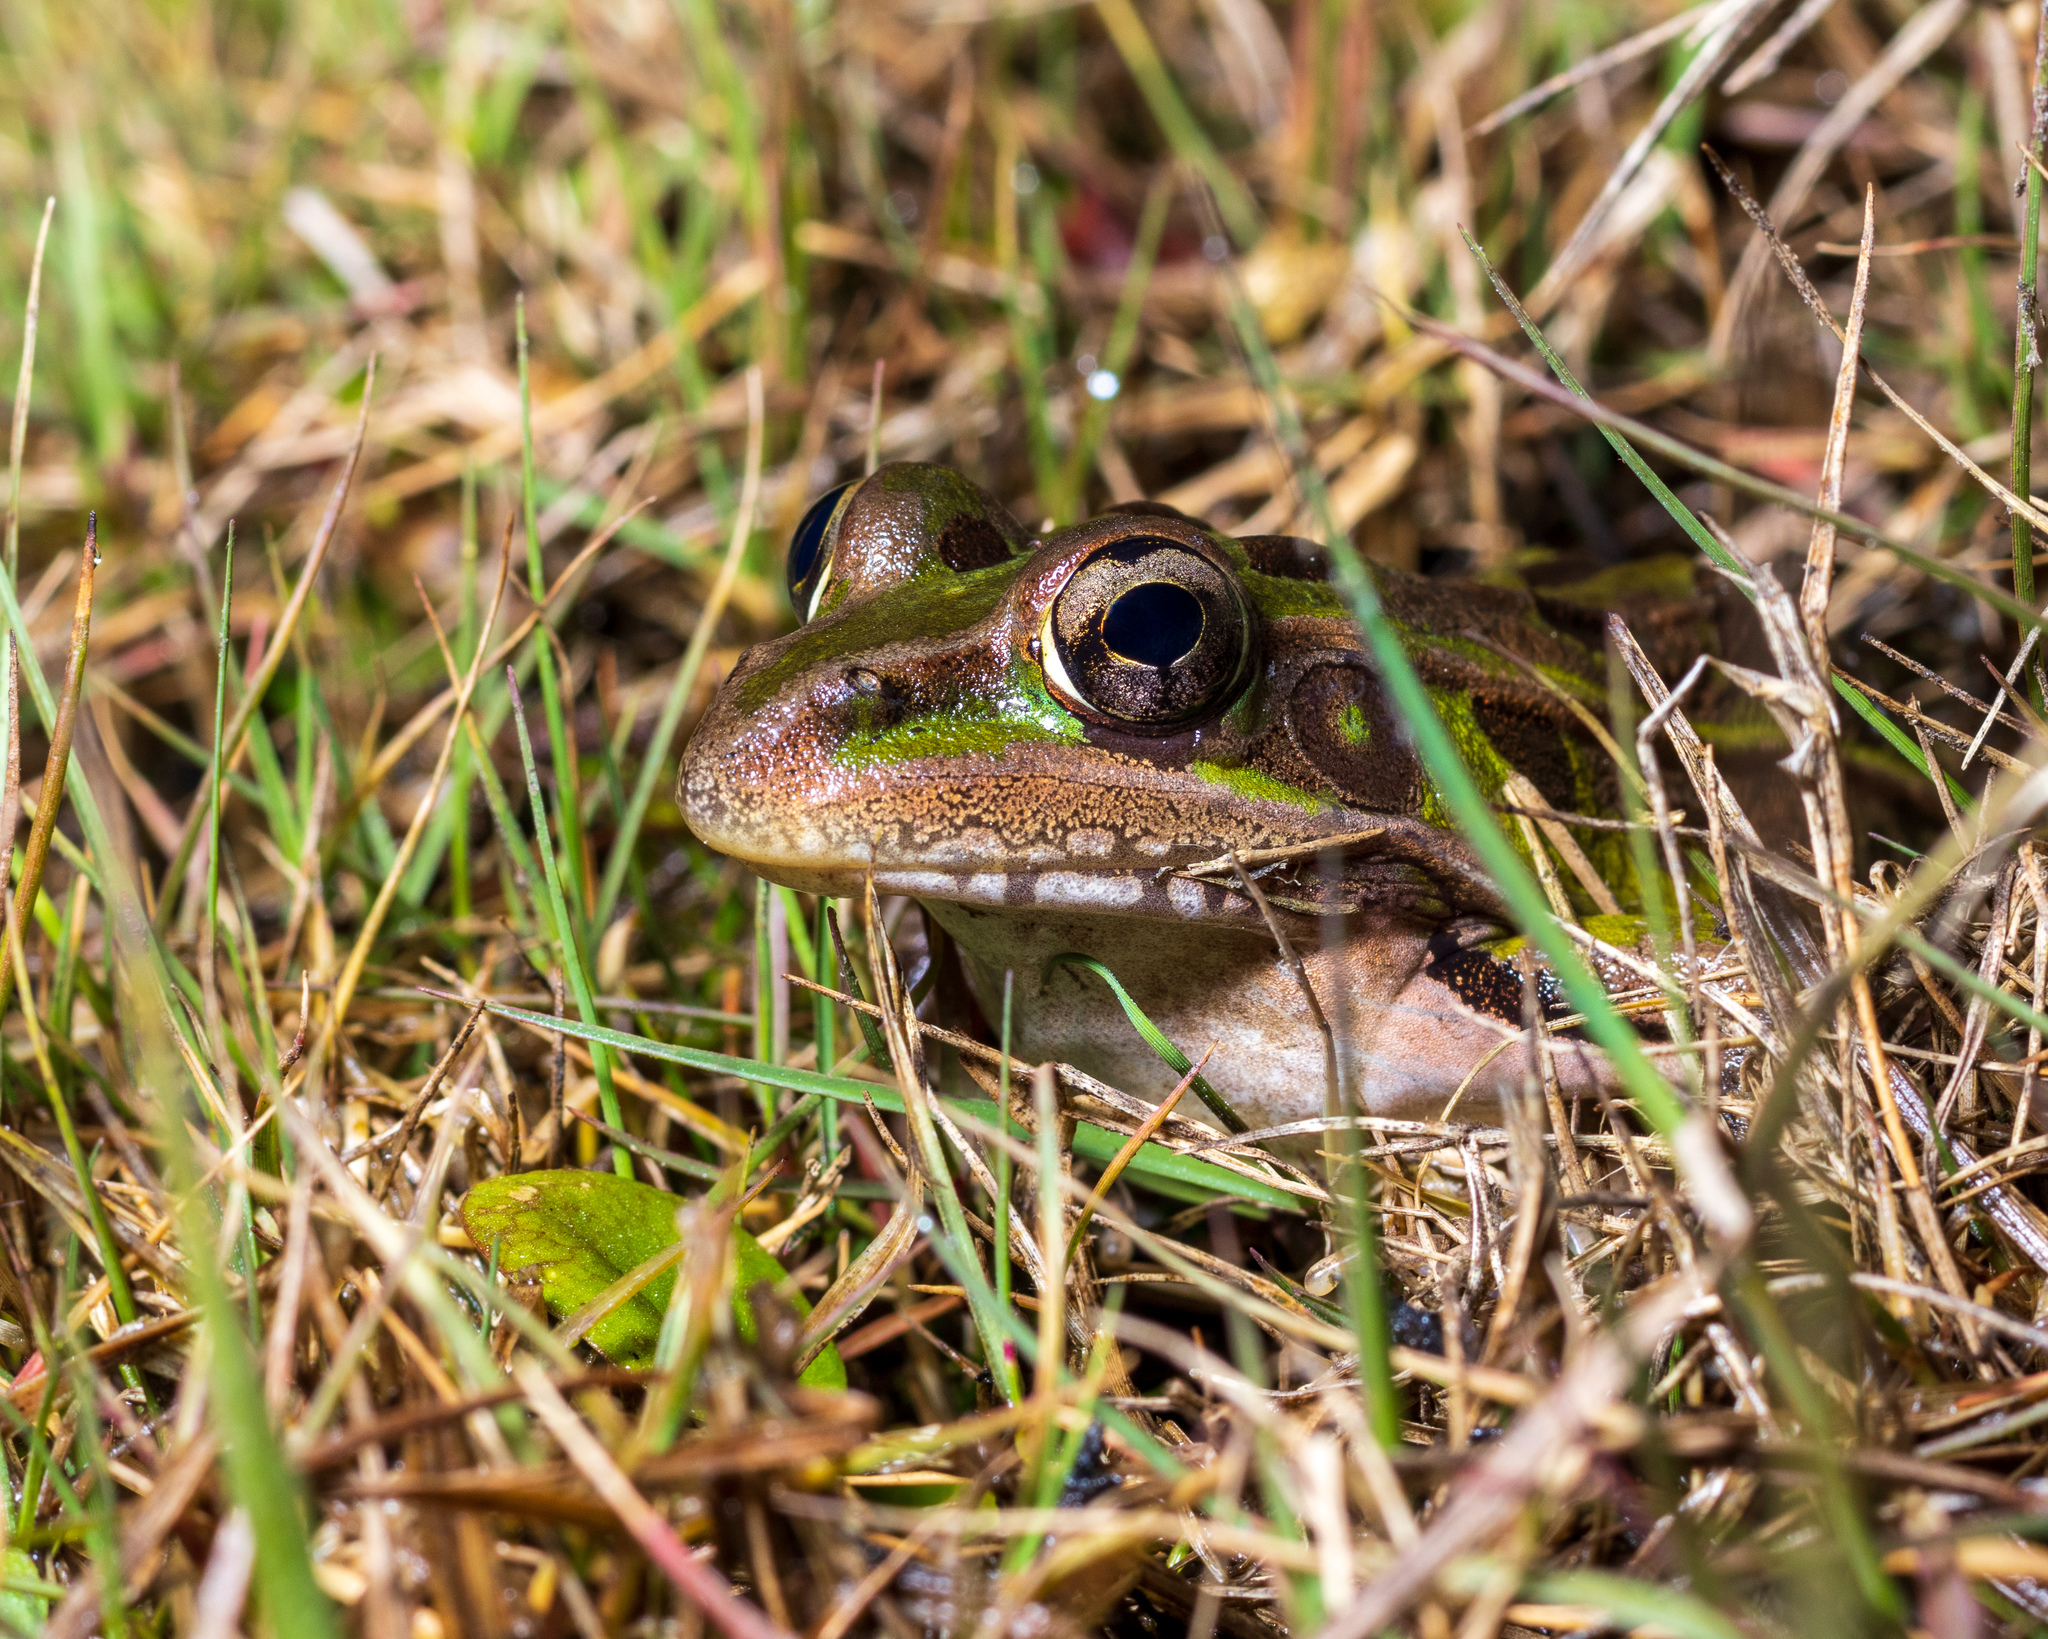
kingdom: Animalia
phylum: Chordata
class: Amphibia
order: Anura
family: Ranidae
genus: Lithobates
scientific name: Lithobates sphenocephalus
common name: Southern leopard frog
